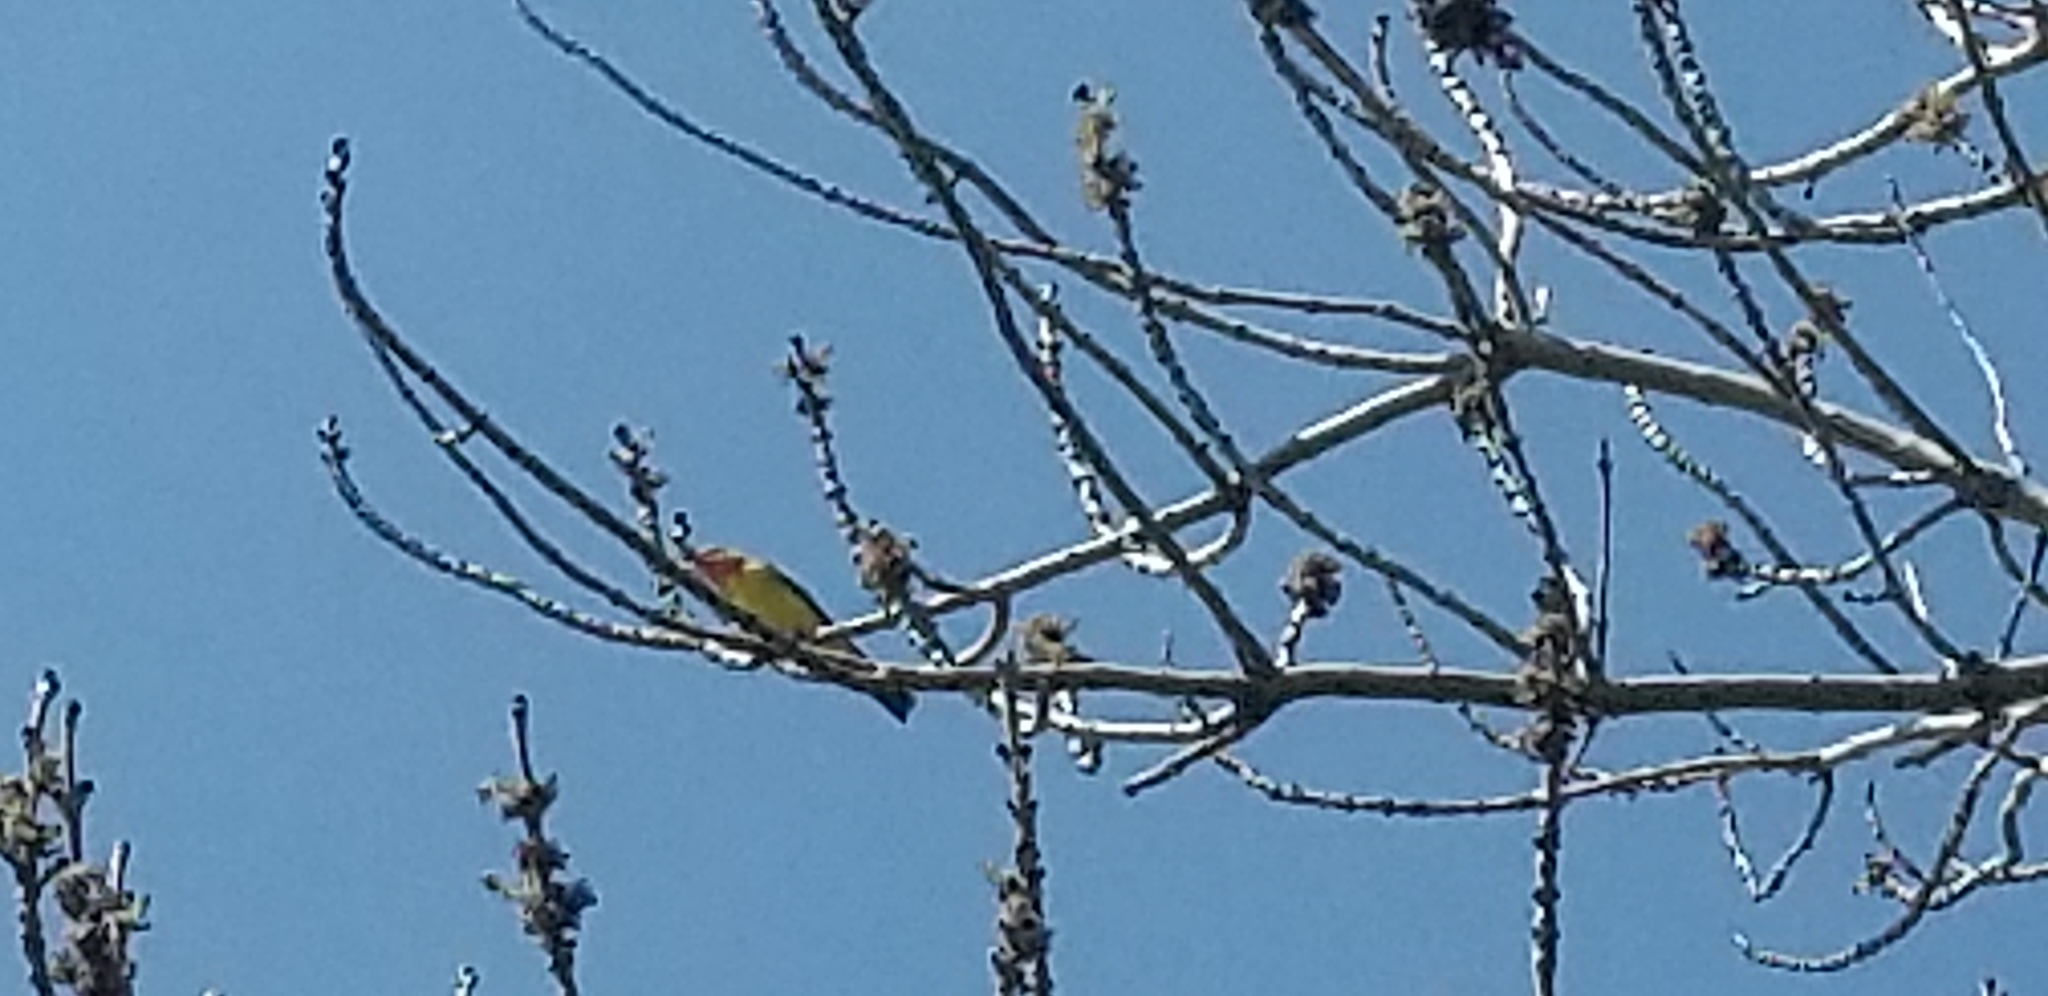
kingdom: Animalia
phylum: Chordata
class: Aves
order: Passeriformes
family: Cardinalidae
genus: Piranga
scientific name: Piranga ludoviciana
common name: Western tanager
